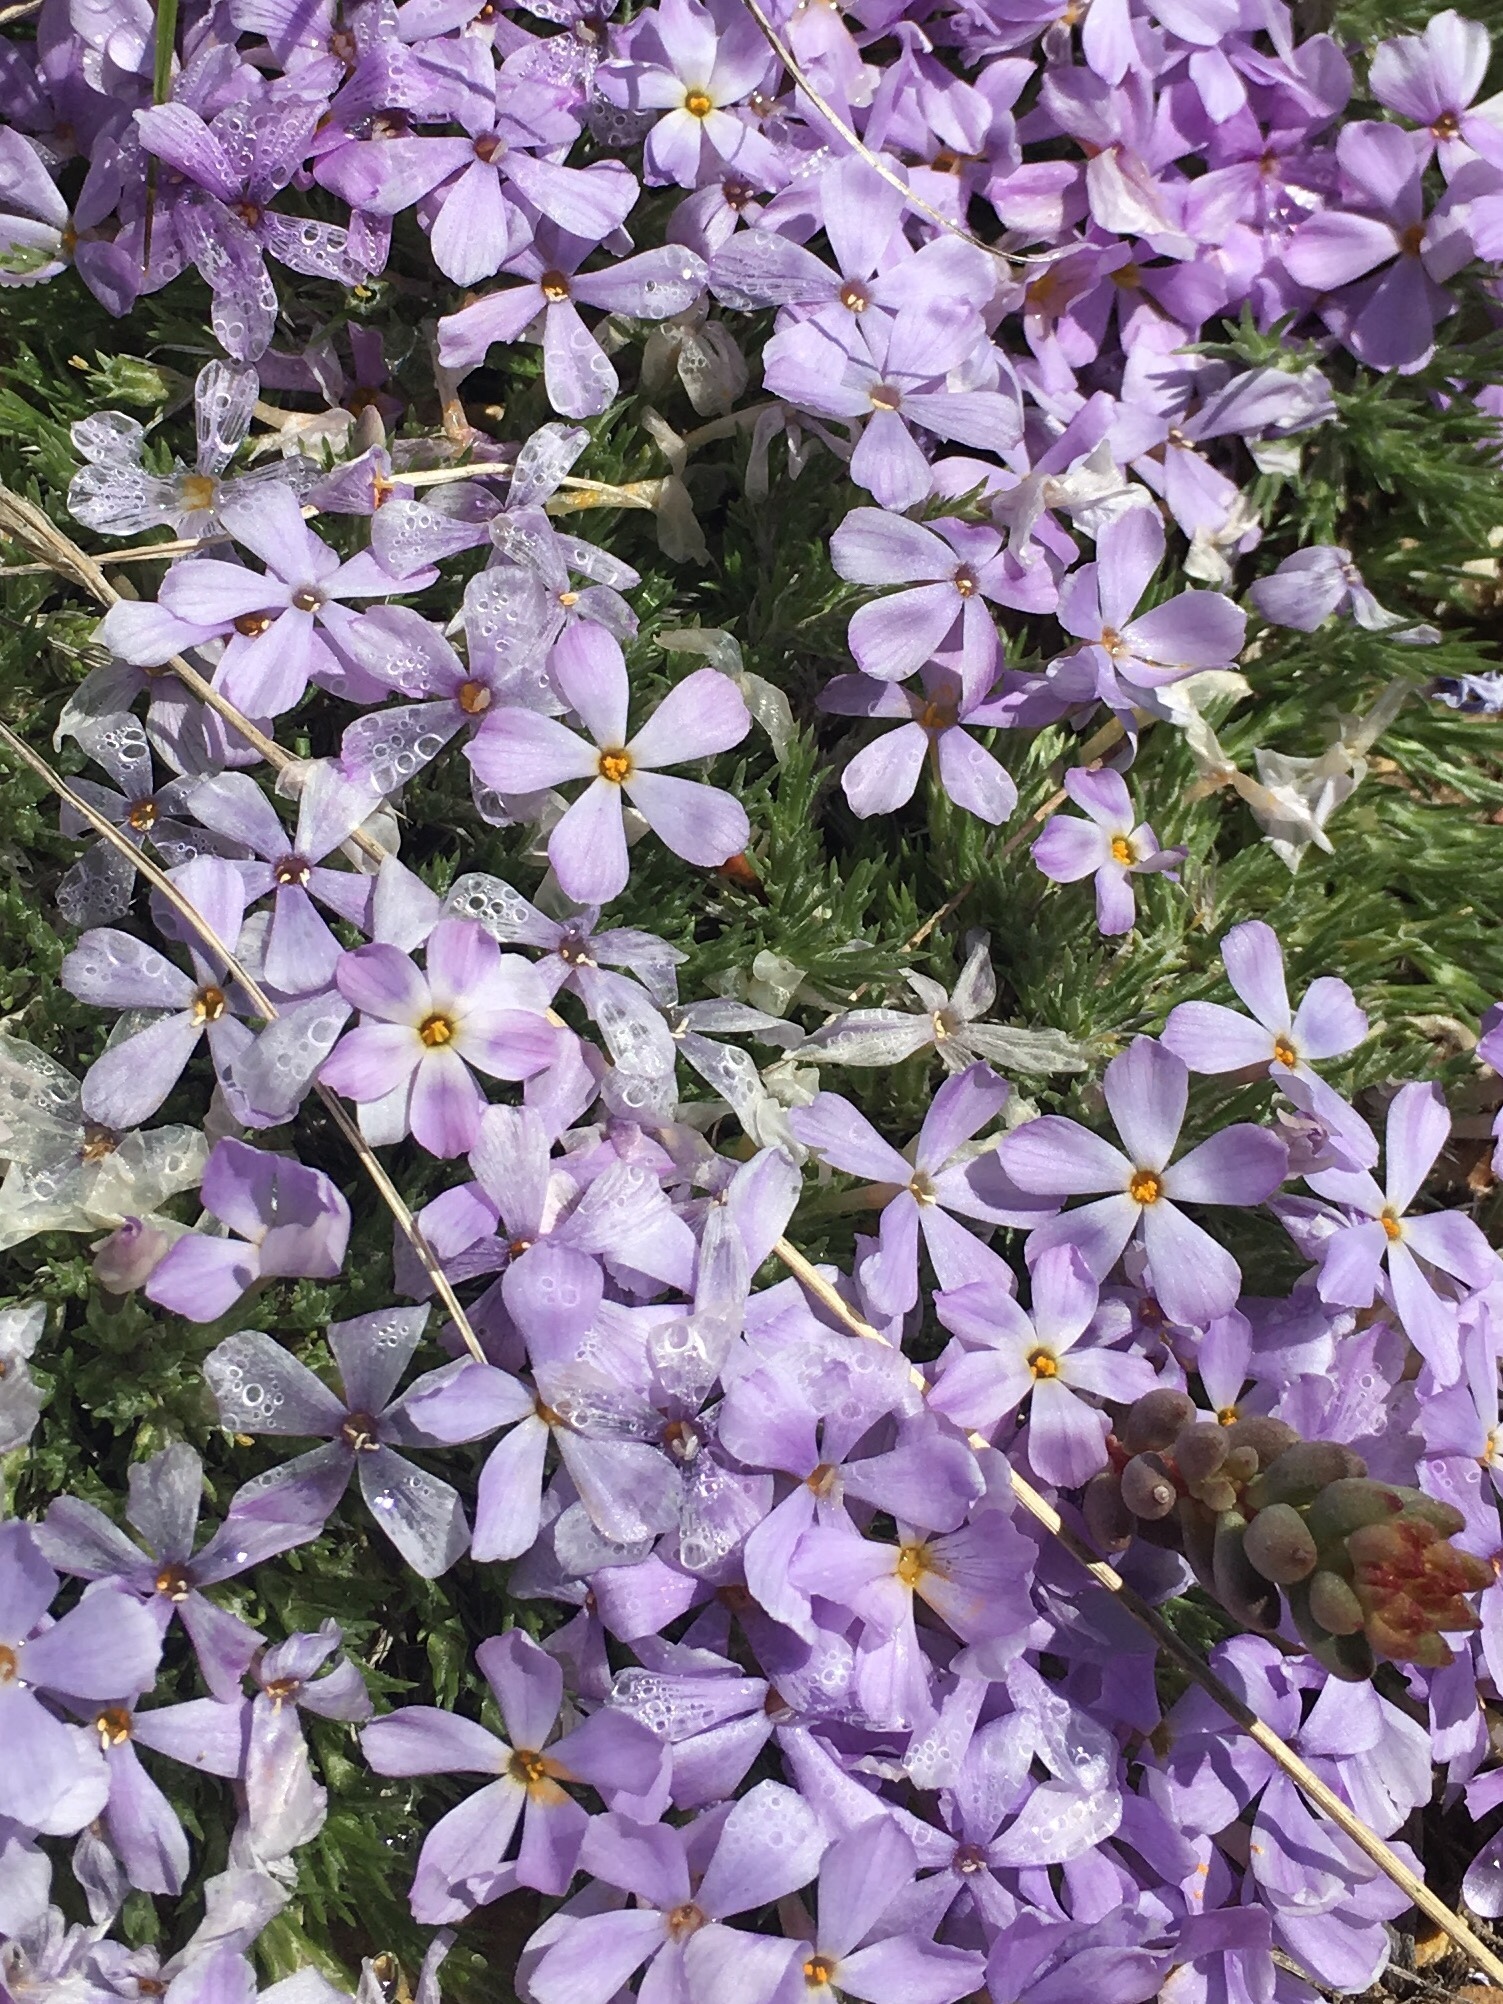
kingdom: Plantae
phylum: Tracheophyta
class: Magnoliopsida
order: Ericales
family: Polemoniaceae
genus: Phlox
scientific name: Phlox hoodii
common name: Moss phlox
